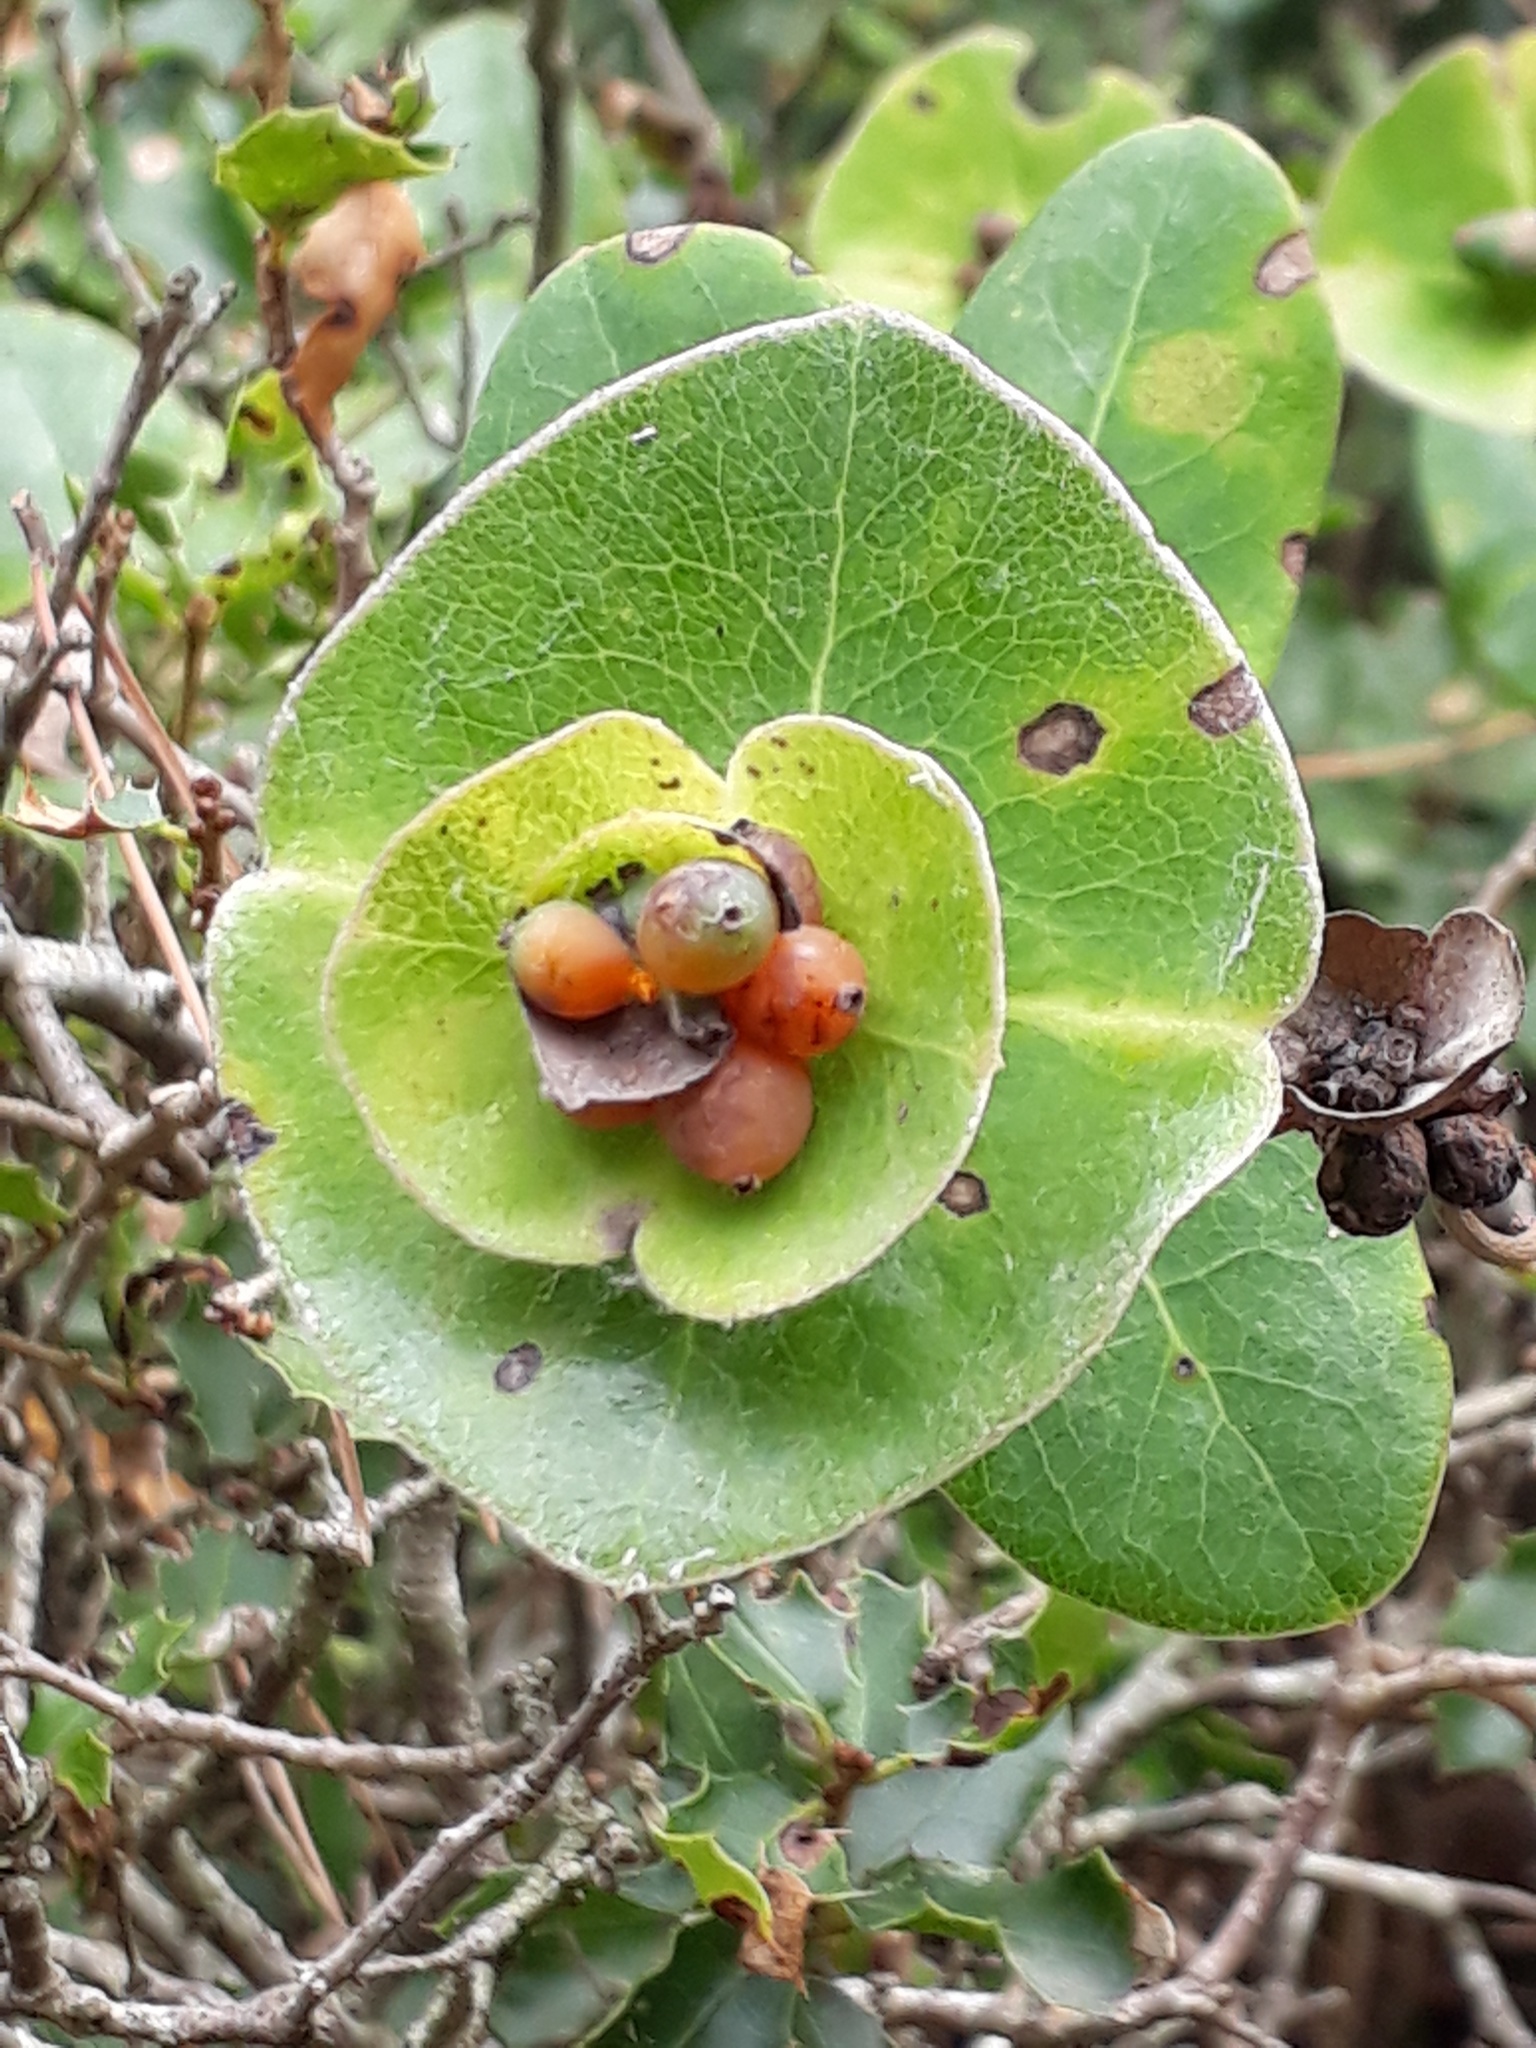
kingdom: Plantae
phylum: Tracheophyta
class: Magnoliopsida
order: Dipsacales
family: Caprifoliaceae
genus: Lonicera
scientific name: Lonicera implexa
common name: Minorca honeysuckle
